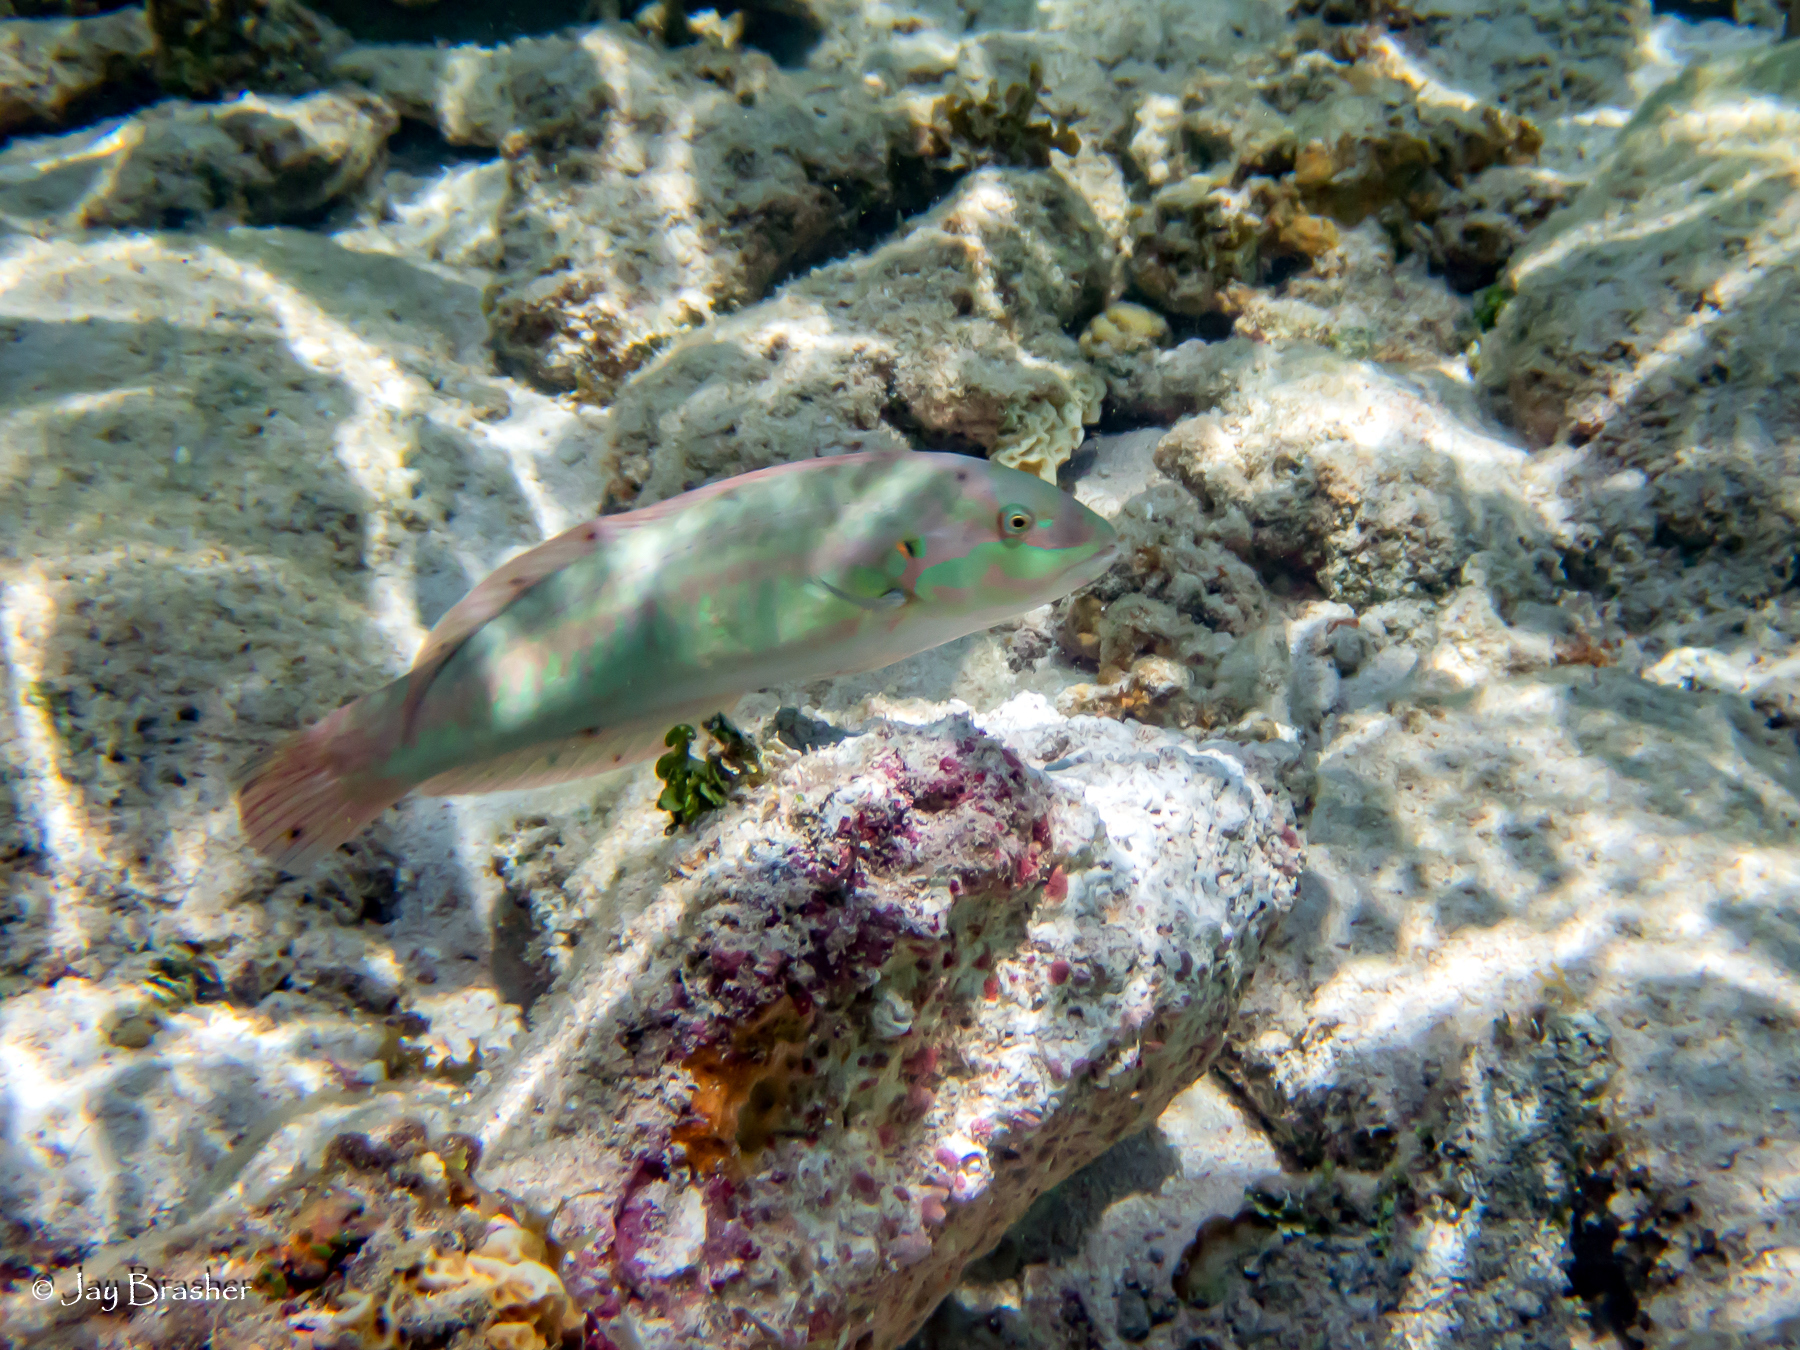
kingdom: Animalia
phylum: Chordata
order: Perciformes
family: Labridae
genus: Halichoeres
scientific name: Halichoeres bivittatus
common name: Slippery dick
